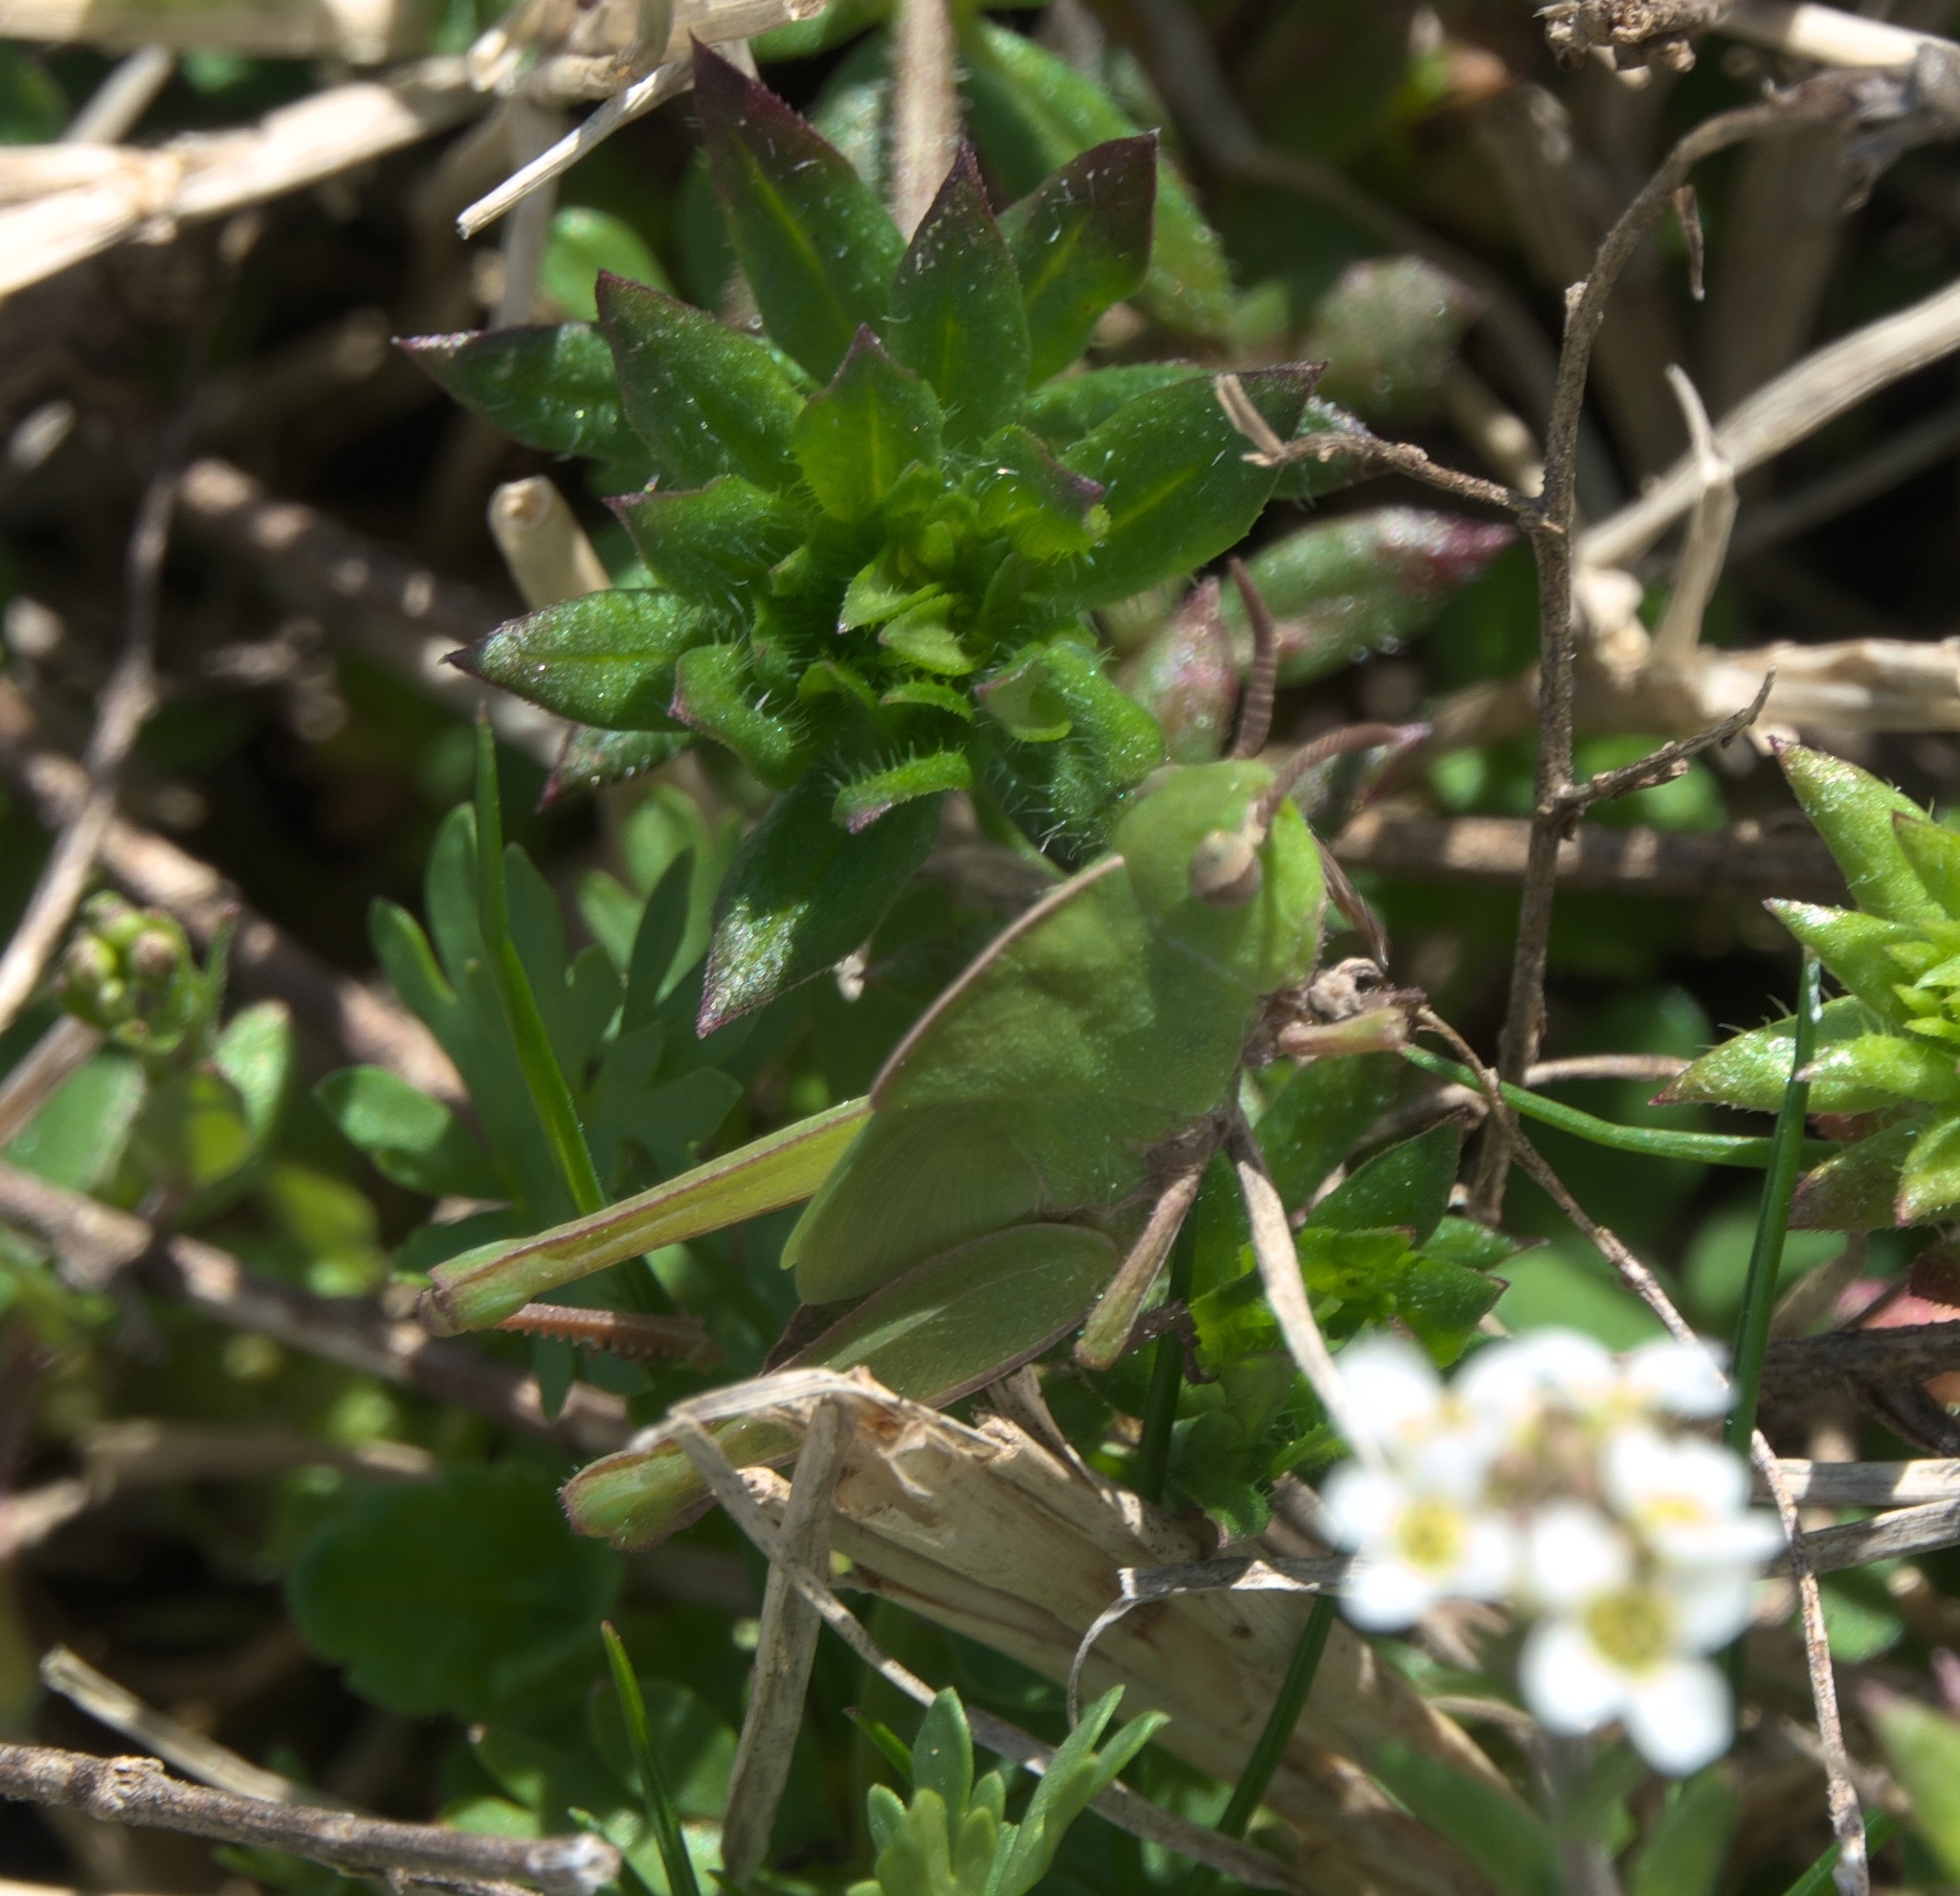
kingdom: Animalia
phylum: Arthropoda
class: Insecta
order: Orthoptera
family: Acrididae
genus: Chortophaga
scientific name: Chortophaga viridifasciata
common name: Green-striped grasshopper
